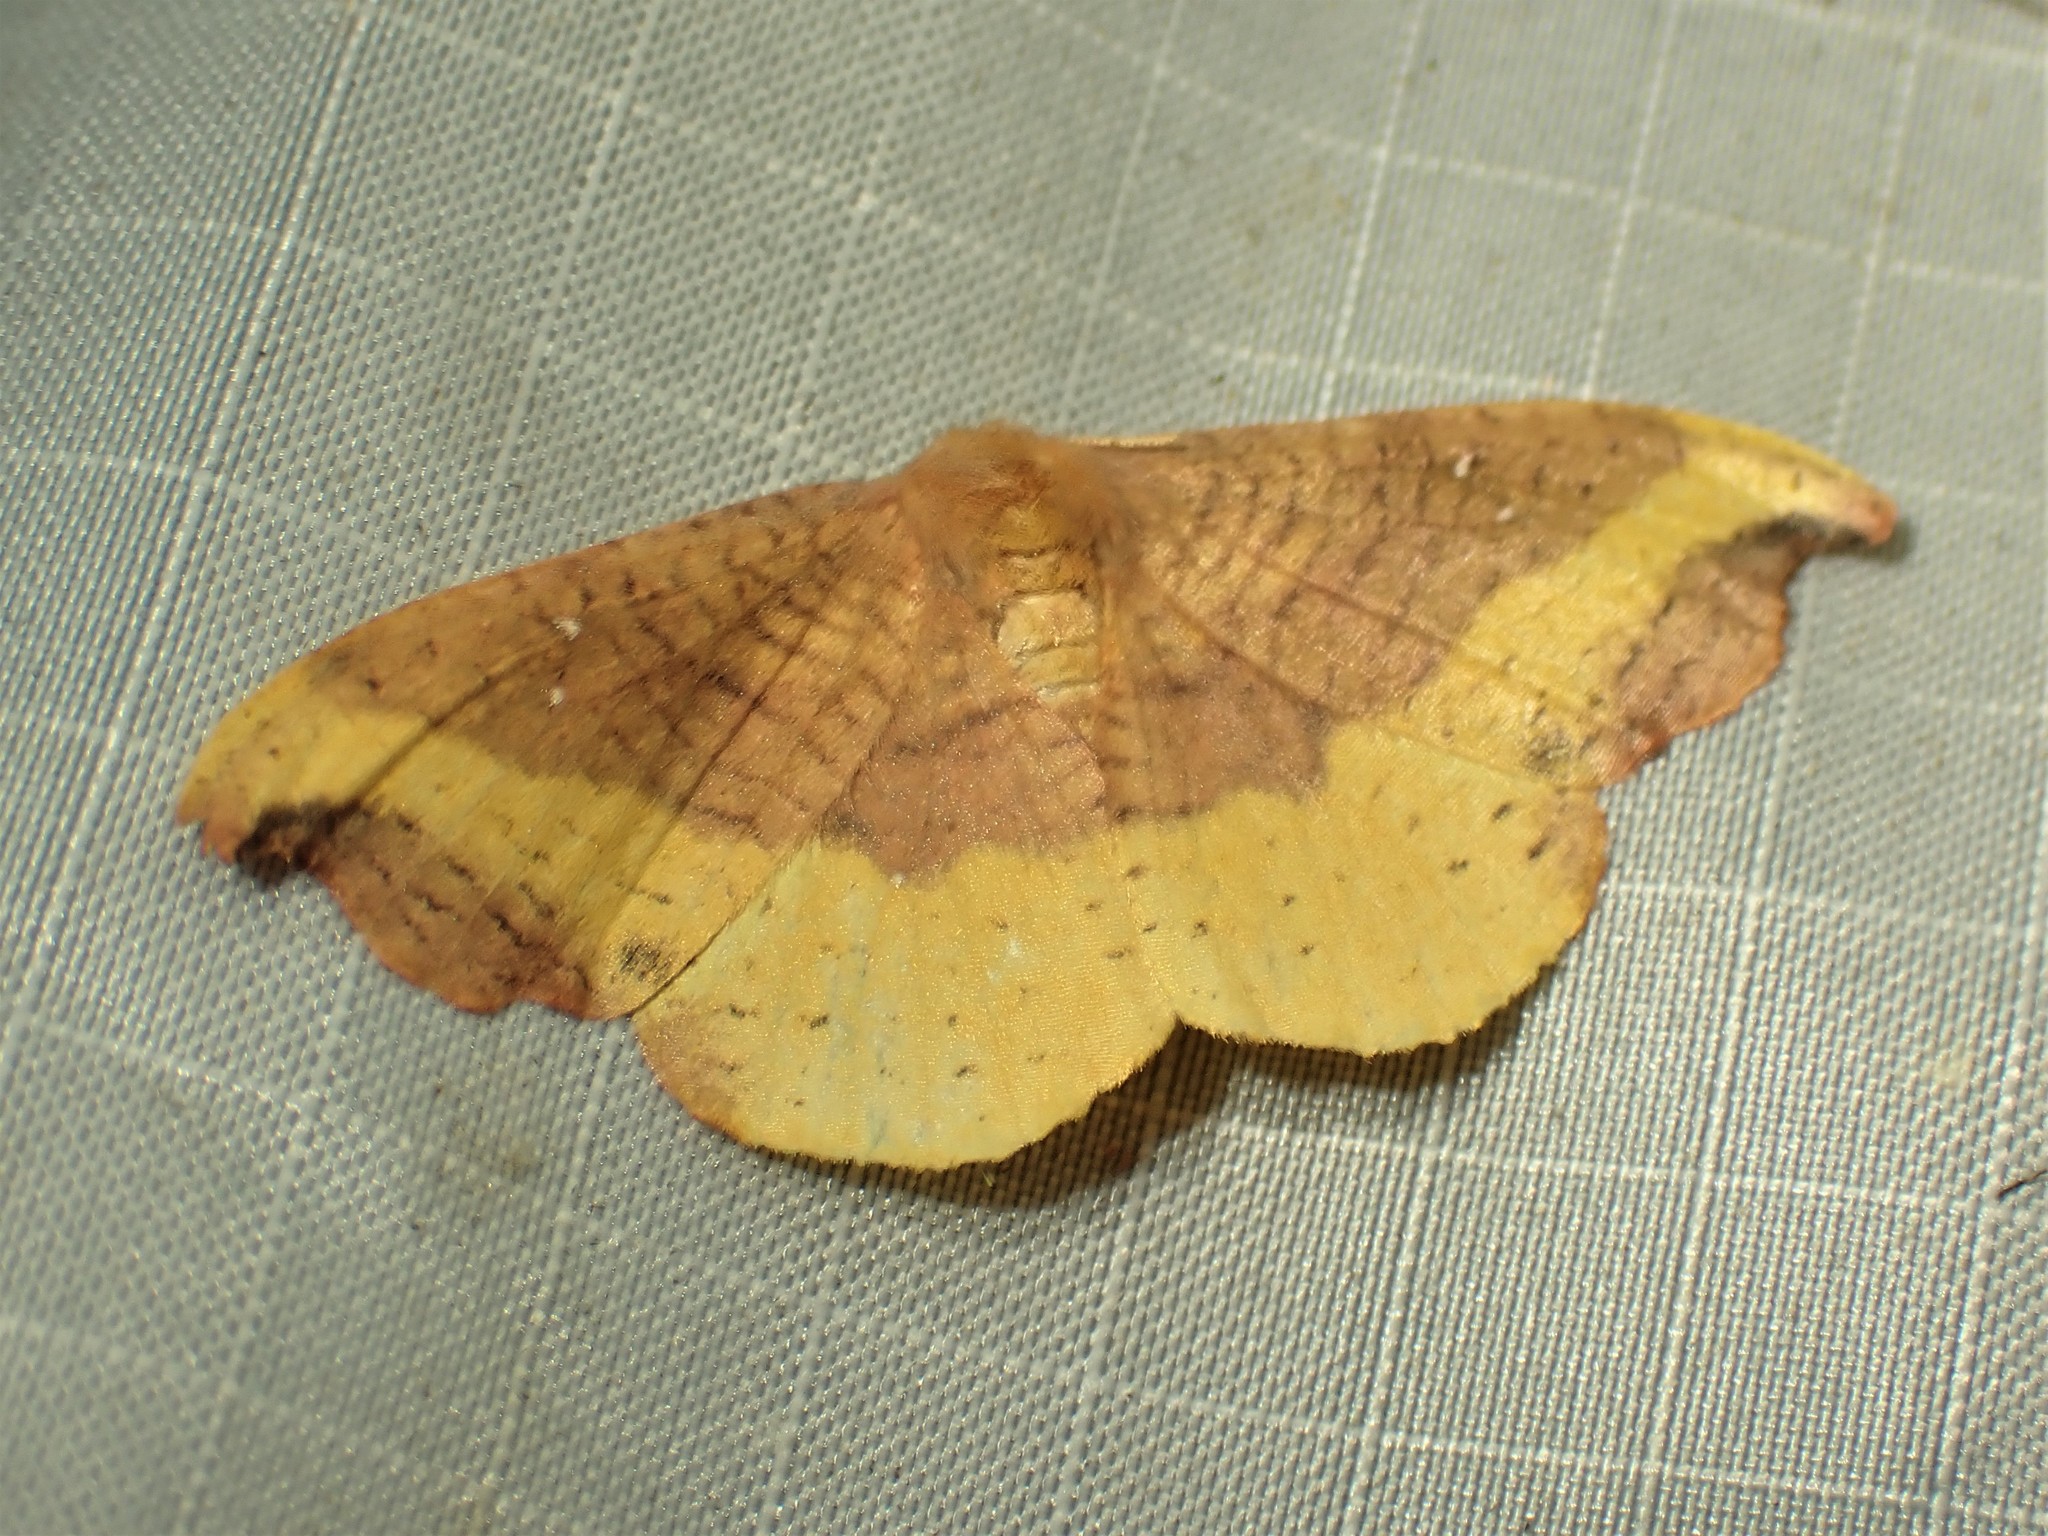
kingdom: Animalia
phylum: Arthropoda
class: Insecta
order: Lepidoptera
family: Drepanidae
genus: Oreta
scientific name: Oreta rosea
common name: Rose hooktip
